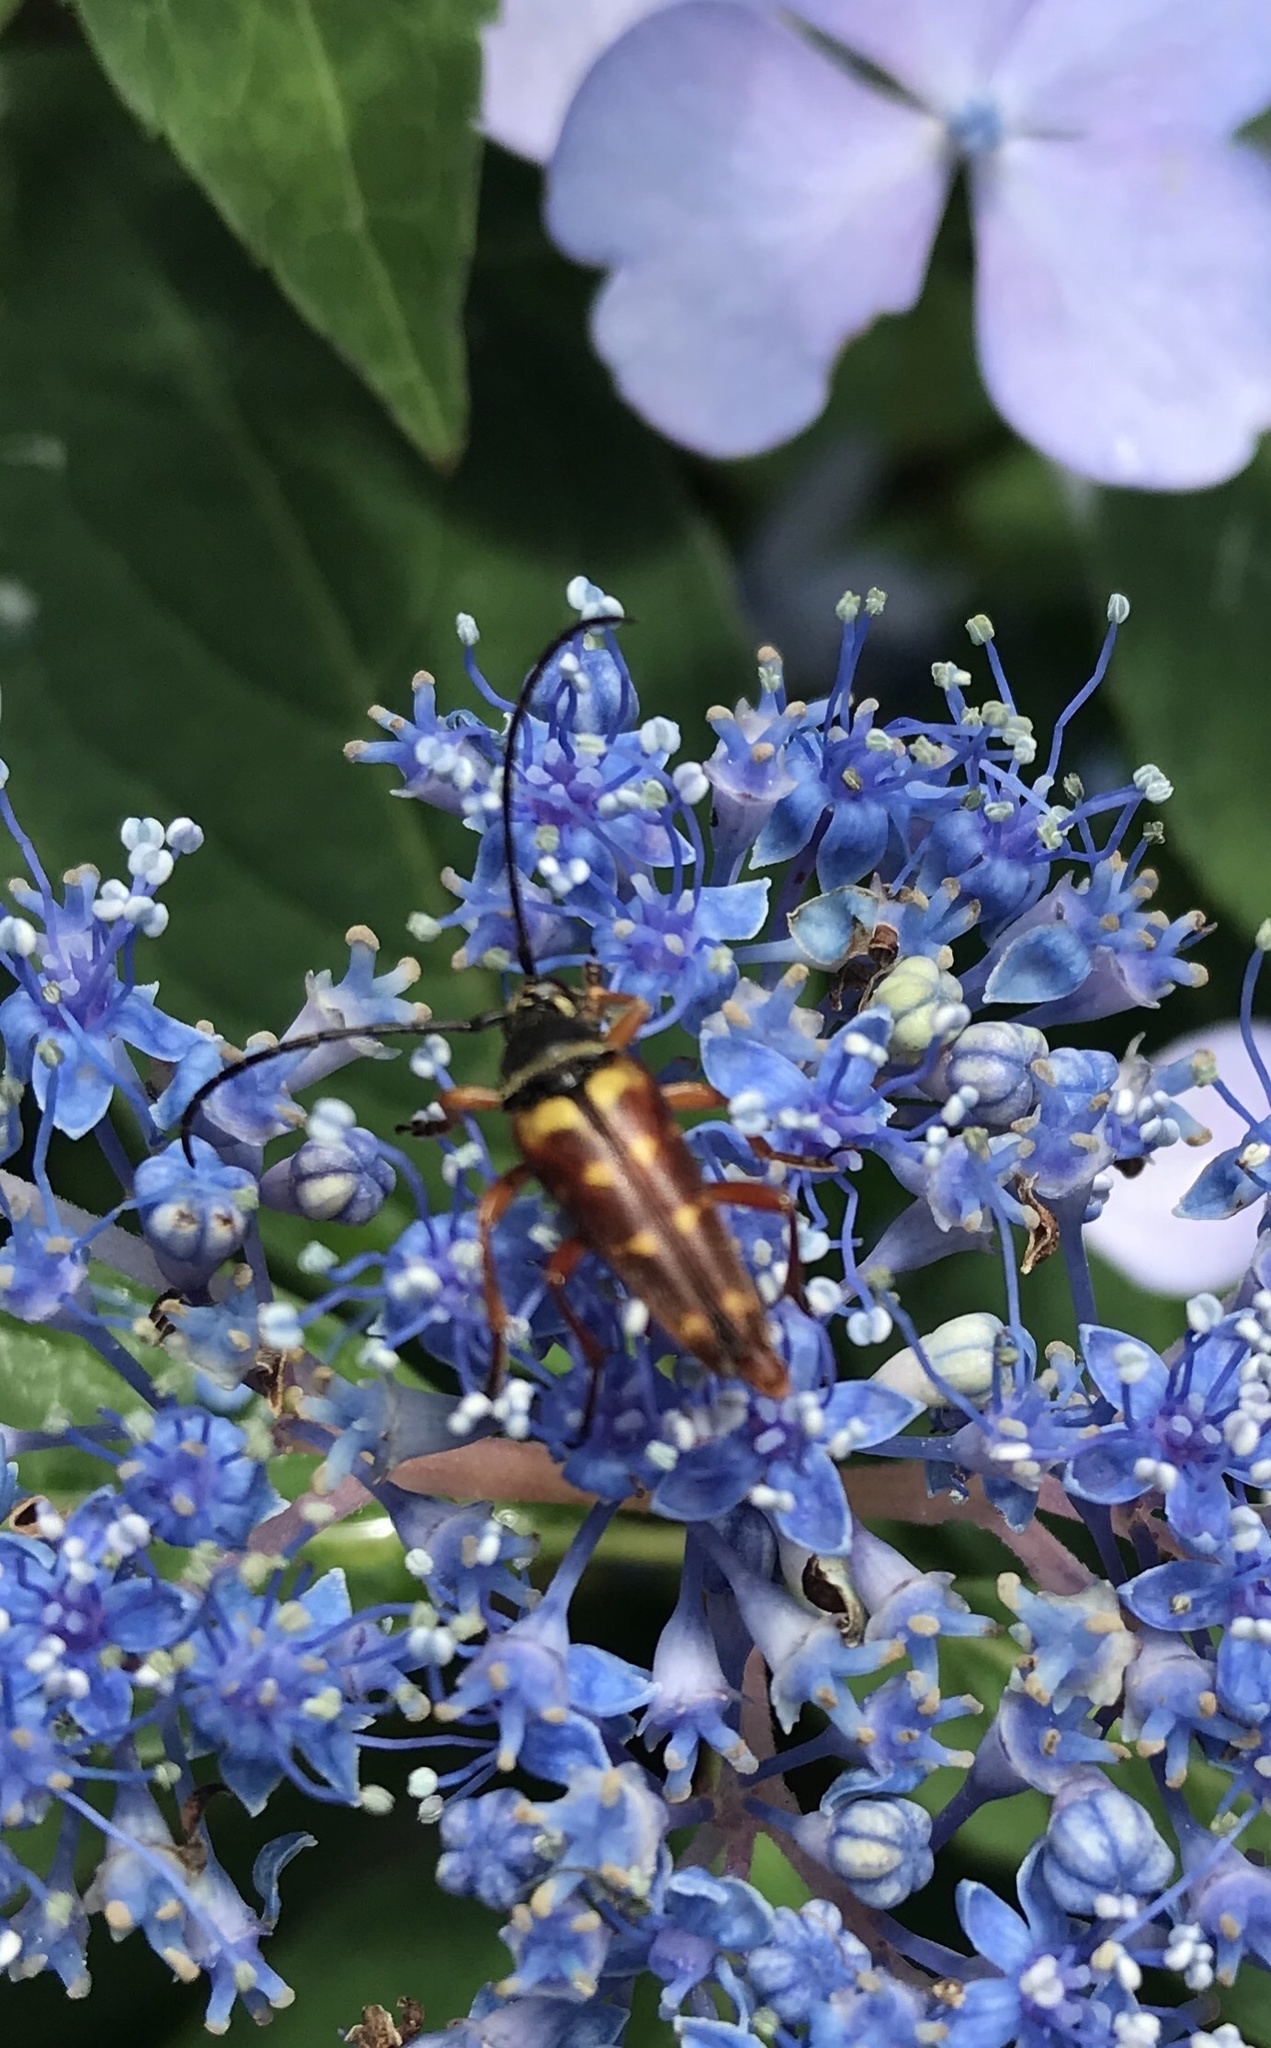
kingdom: Animalia
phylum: Arthropoda
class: Insecta
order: Coleoptera
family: Cerambycidae
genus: Typocerus
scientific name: Typocerus velutinus
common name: Banded longhorn beetle
